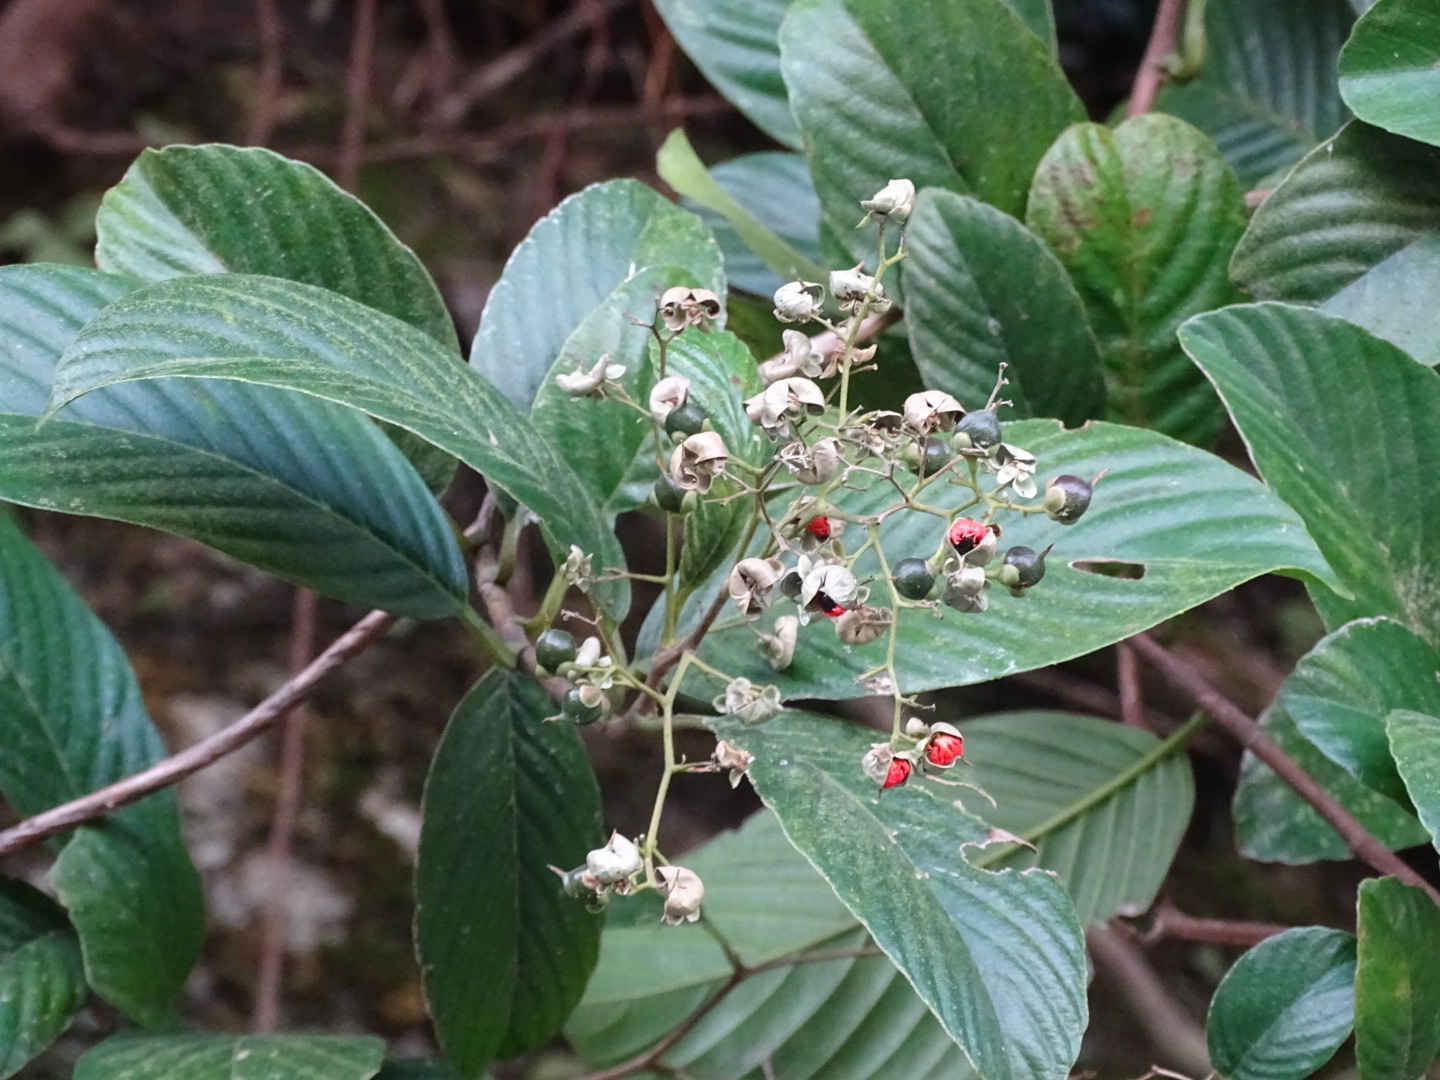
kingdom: Plantae
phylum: Tracheophyta
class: Magnoliopsida
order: Dilleniales
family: Dilleniaceae
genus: Tetracera
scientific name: Tetracera sarmentosa
